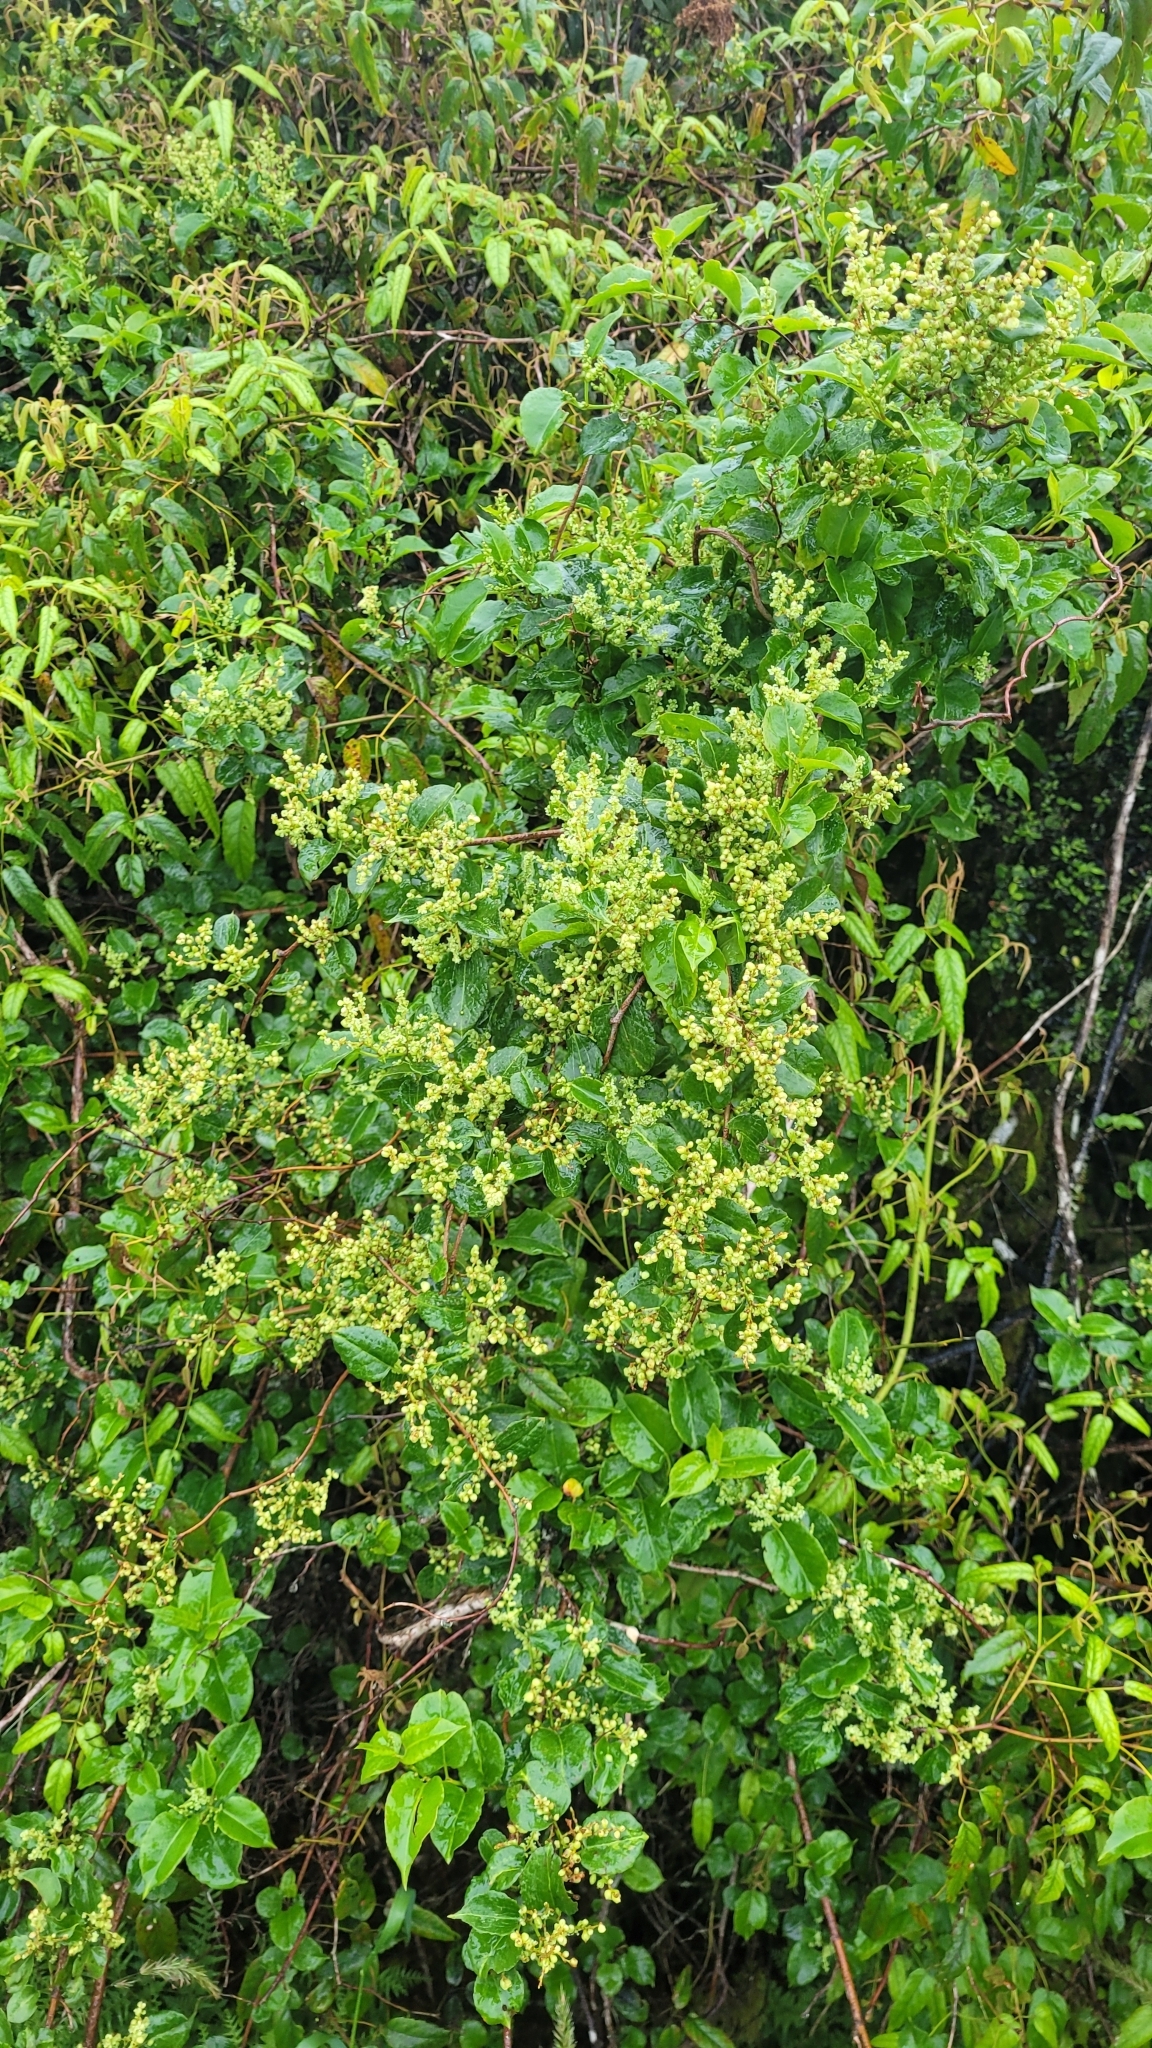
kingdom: Plantae
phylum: Tracheophyta
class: Magnoliopsida
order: Caryophyllales
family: Polygonaceae
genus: Muehlenbeckia
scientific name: Muehlenbeckia australis
